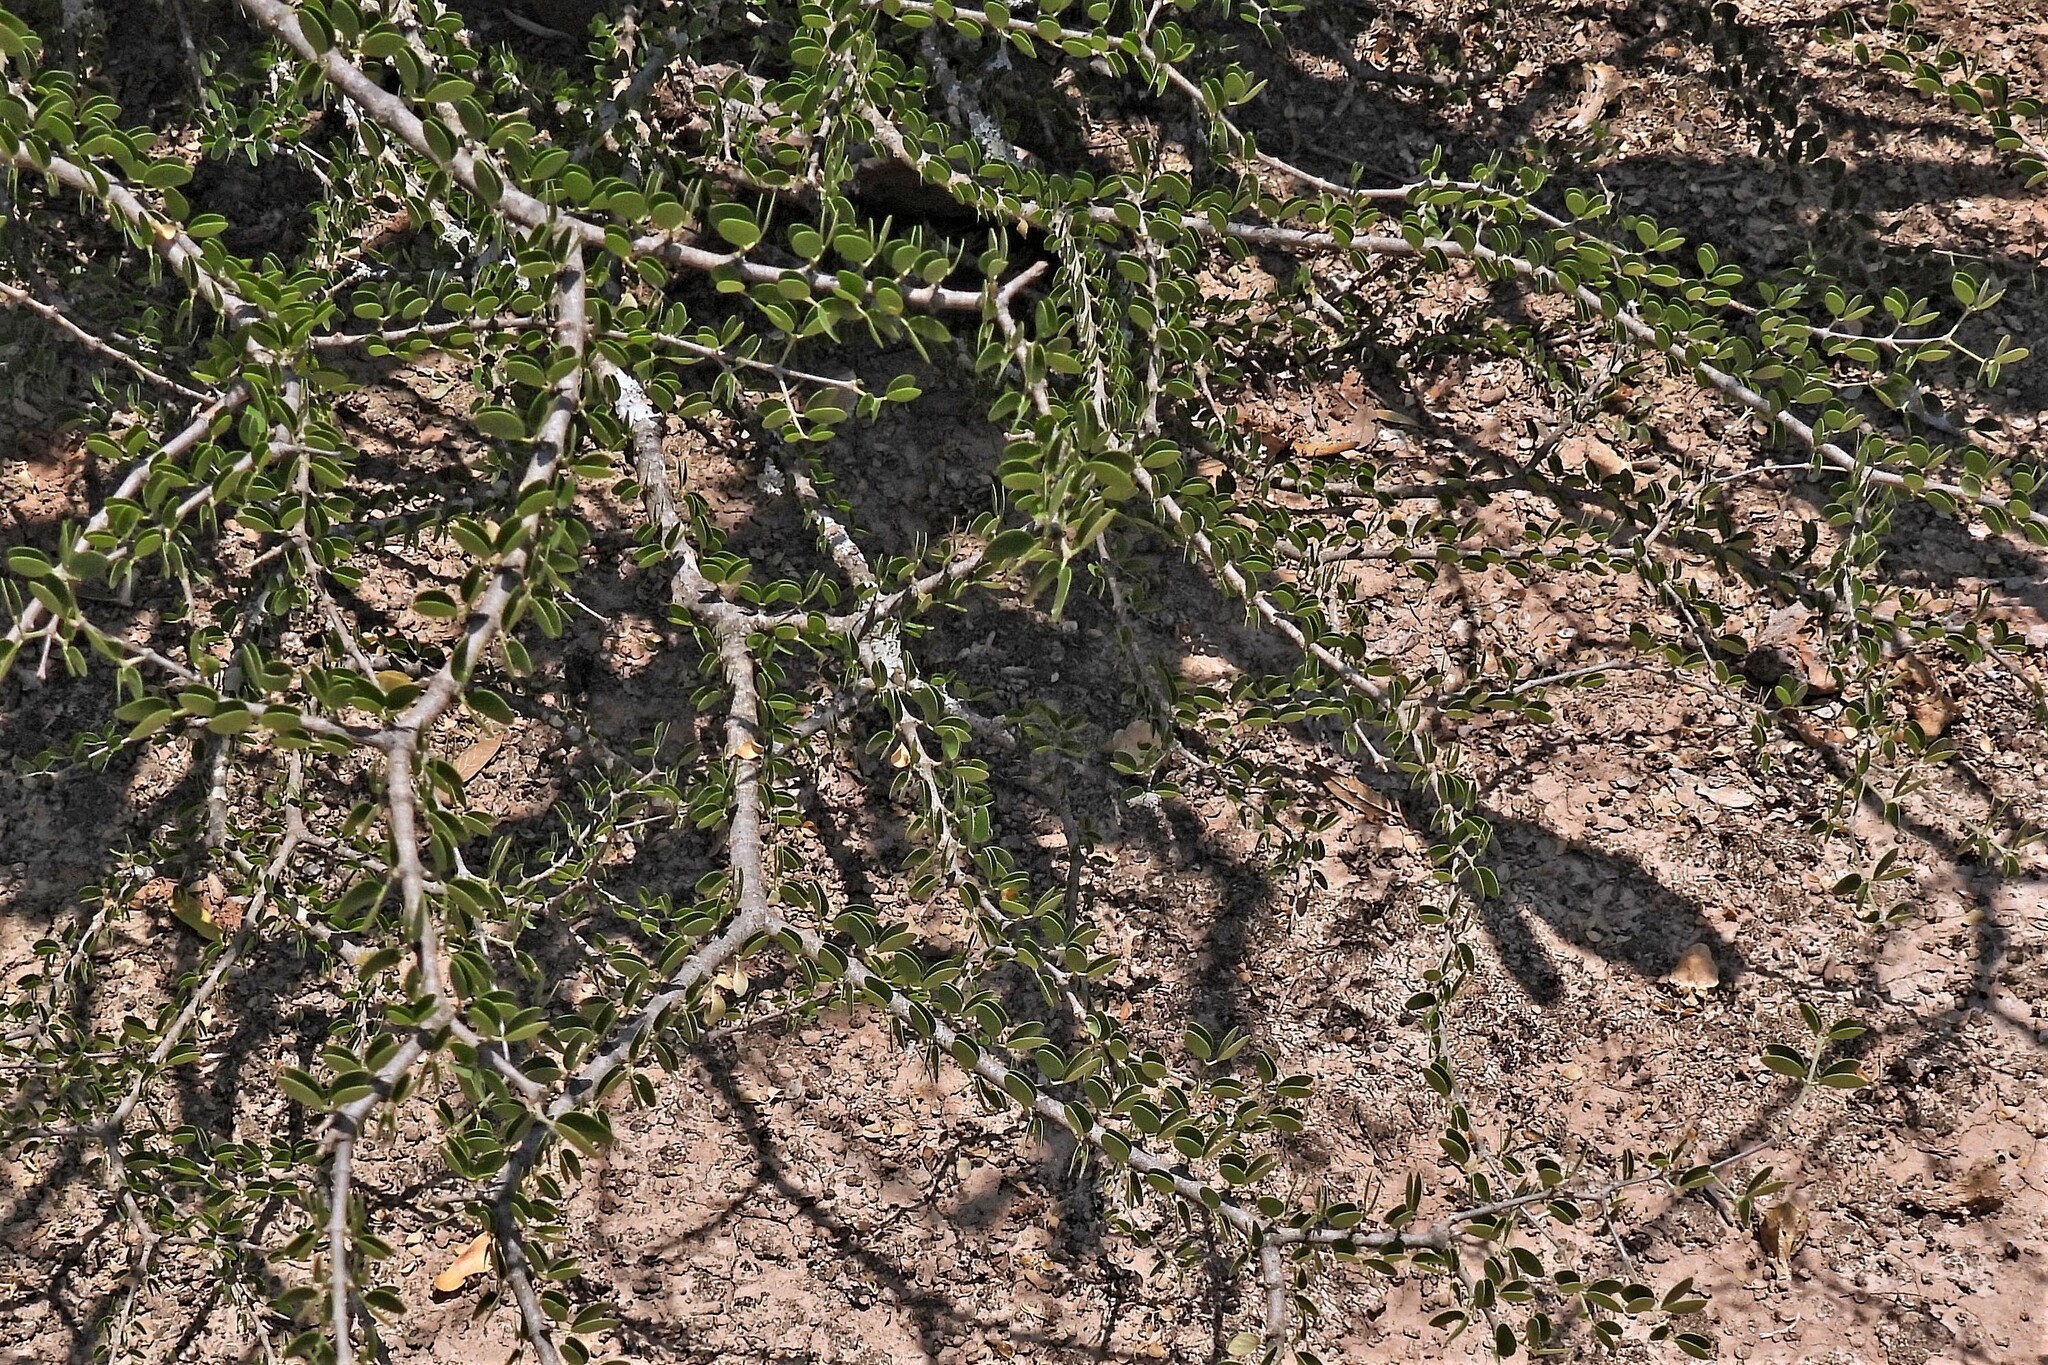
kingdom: Plantae
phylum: Tracheophyta
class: Magnoliopsida
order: Zygophyllales
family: Zygophyllaceae
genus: Gonopterodendron
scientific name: Gonopterodendron sarmientoi
